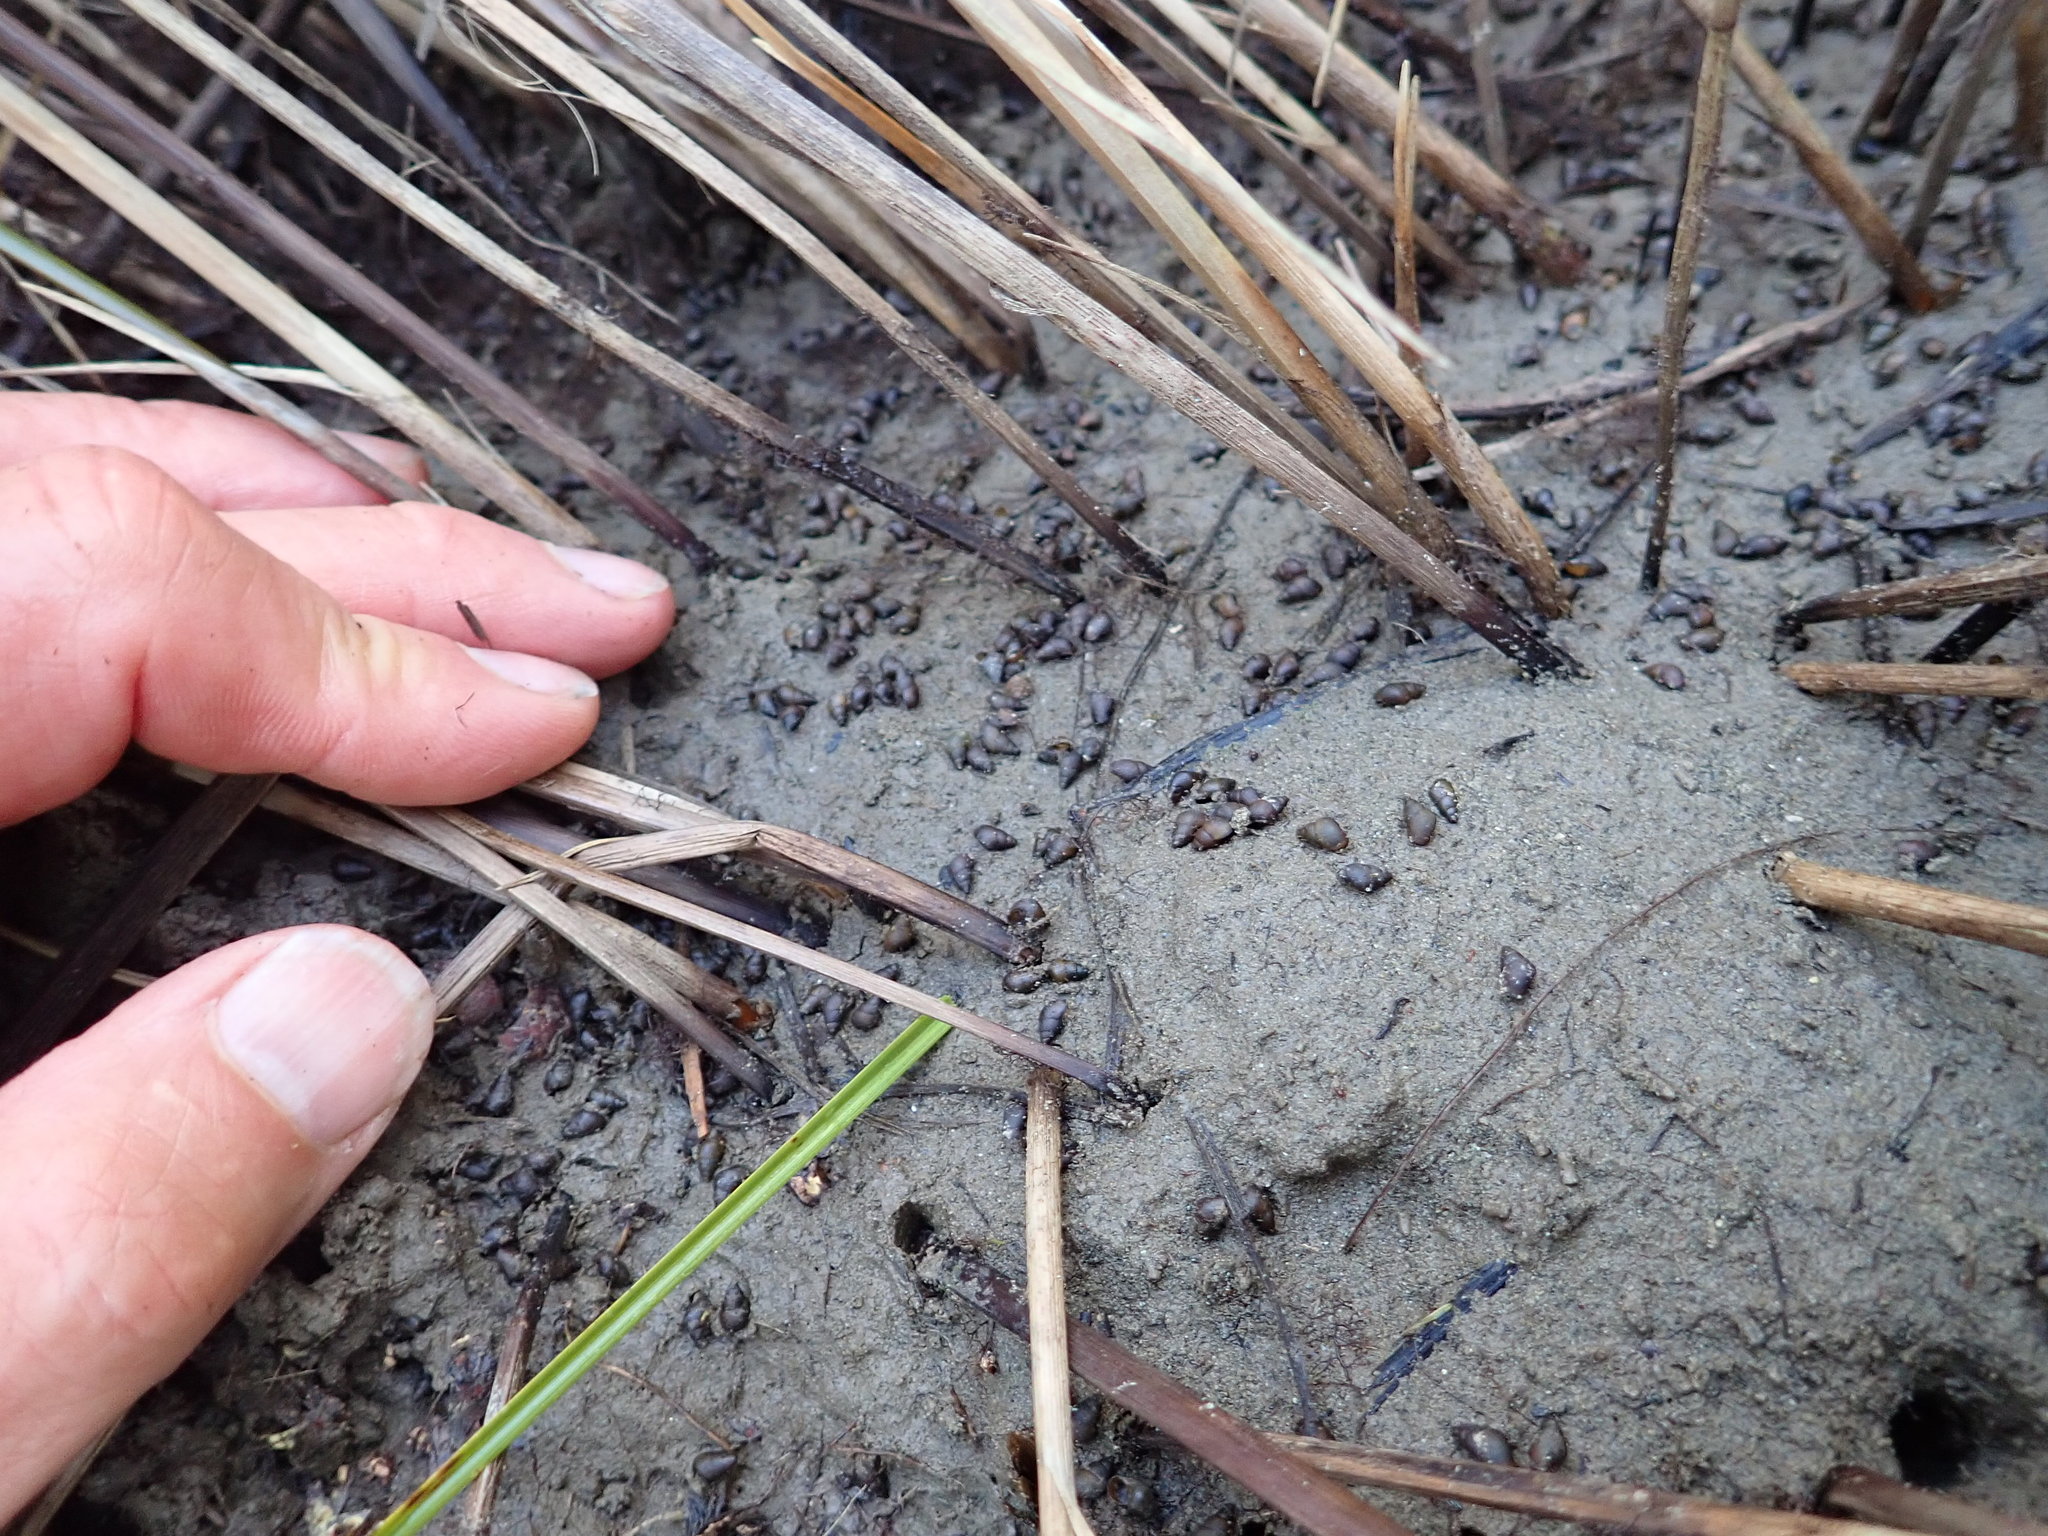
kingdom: Animalia
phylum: Mollusca
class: Gastropoda
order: Littorinimorpha
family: Tateidae
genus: Potamopyrgus
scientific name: Potamopyrgus estuarinus
